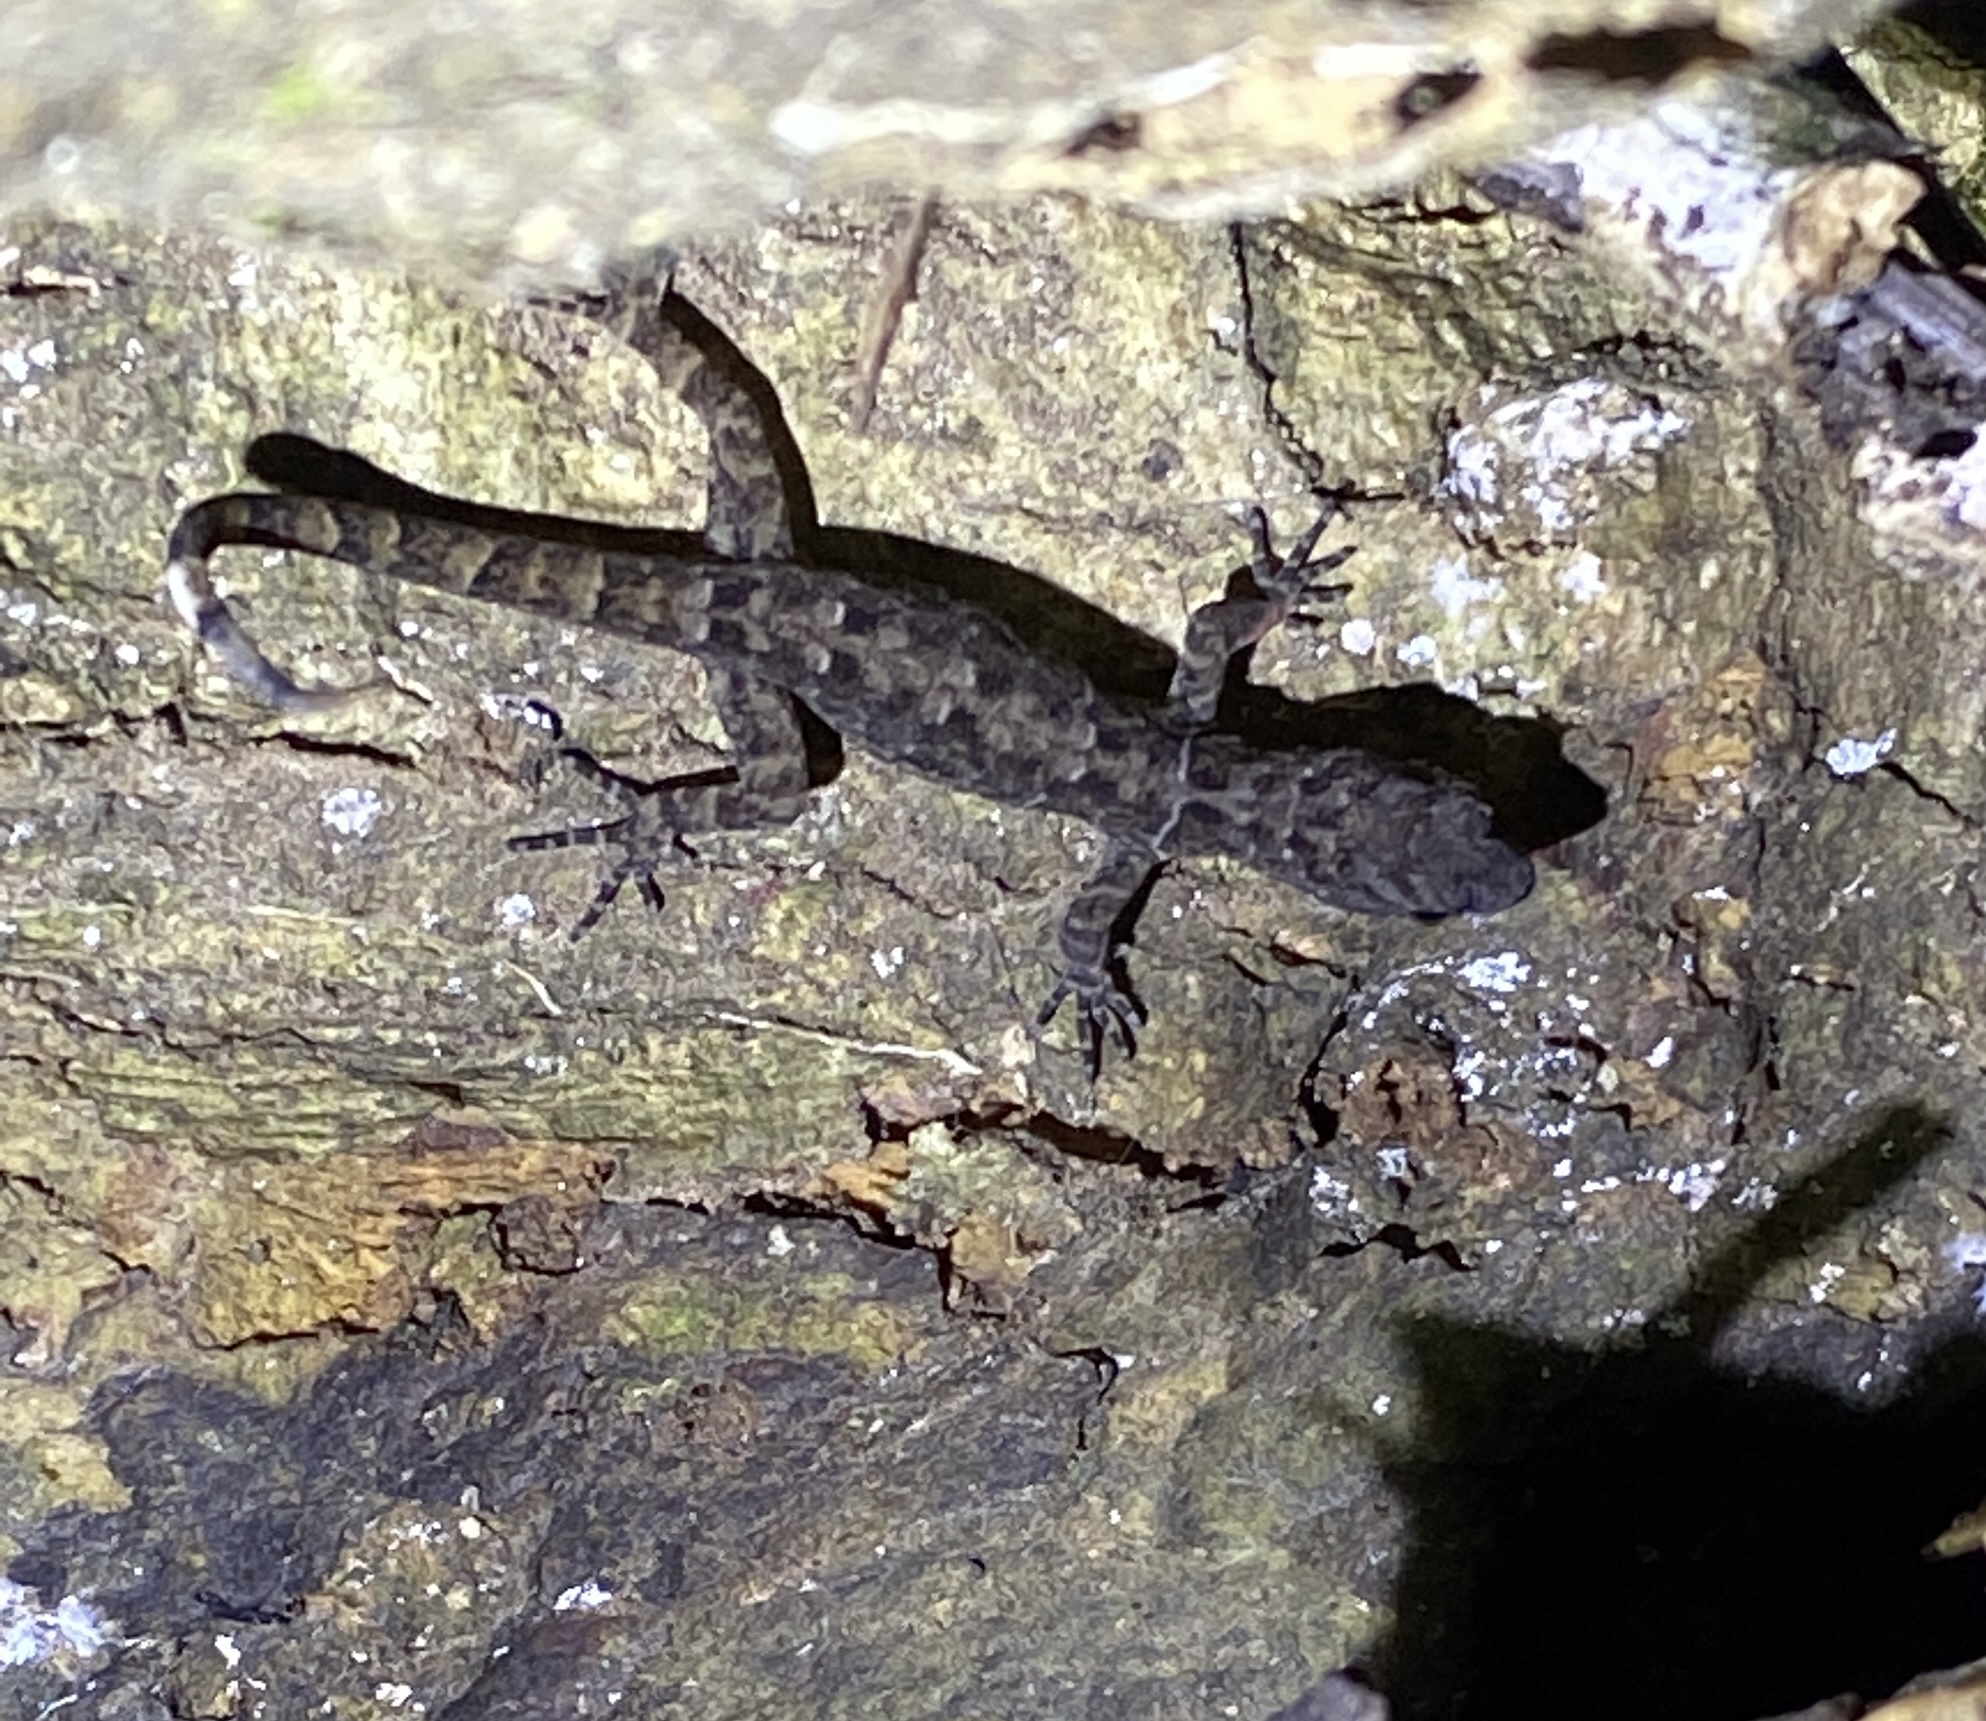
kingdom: Animalia
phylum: Chordata
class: Squamata
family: Sphaerodactylidae
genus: Gonatodes
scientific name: Gonatodes humeralis
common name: South american clawed gecko
